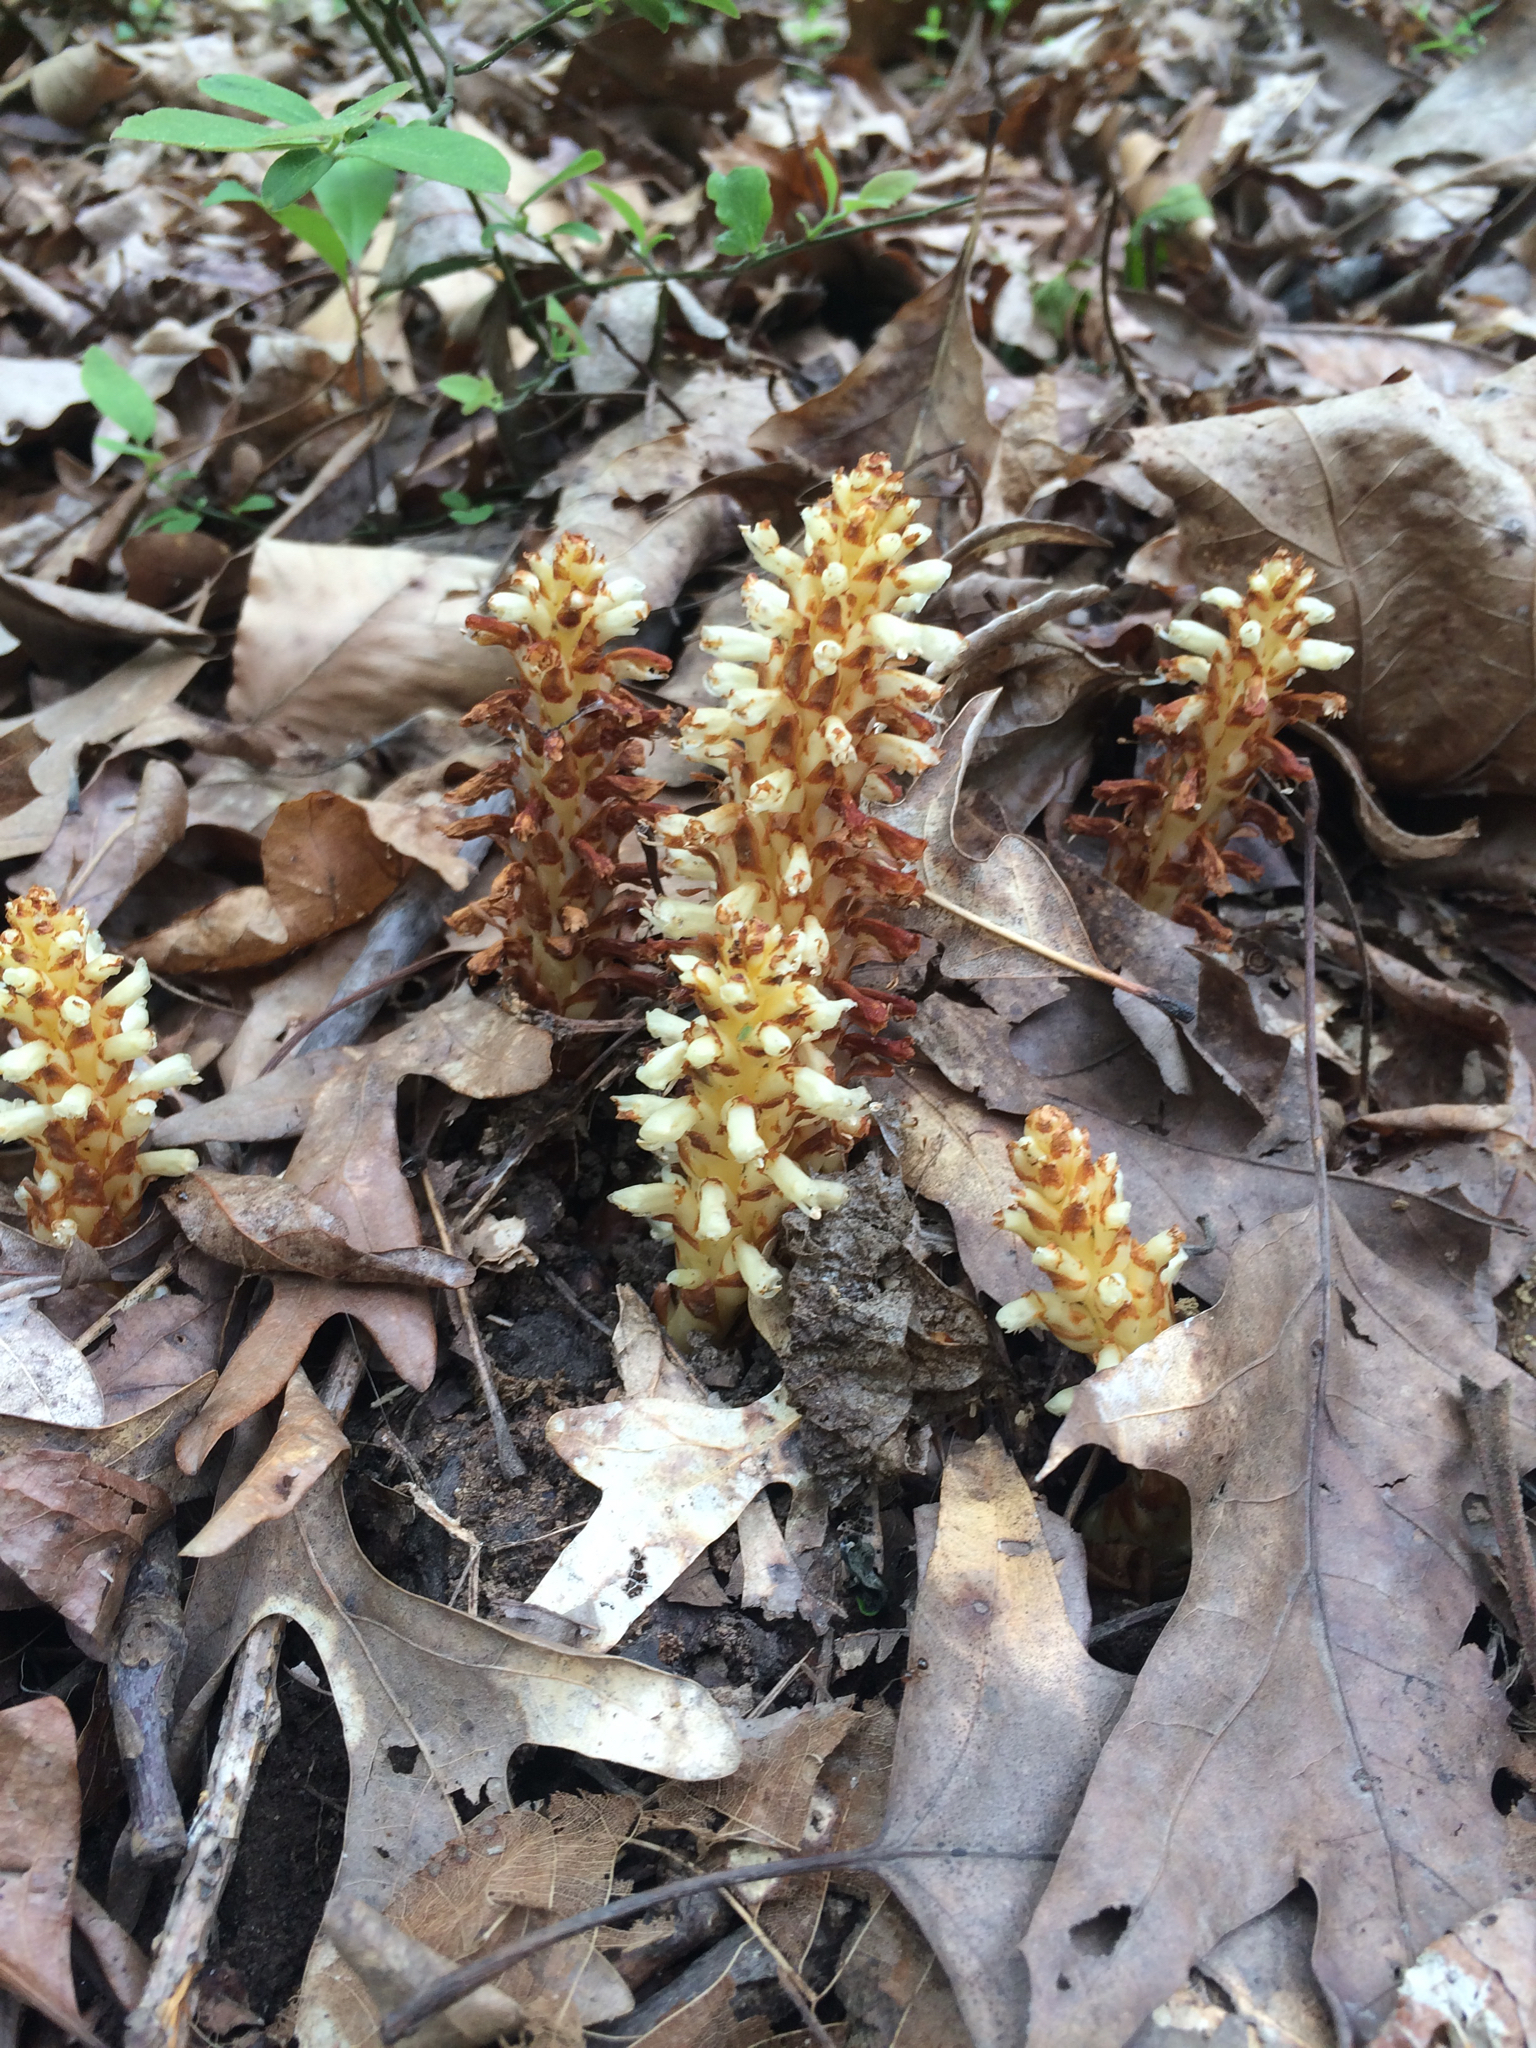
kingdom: Plantae
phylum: Tracheophyta
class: Magnoliopsida
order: Lamiales
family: Orobanchaceae
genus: Conopholis
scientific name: Conopholis americana
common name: American cancer-root
